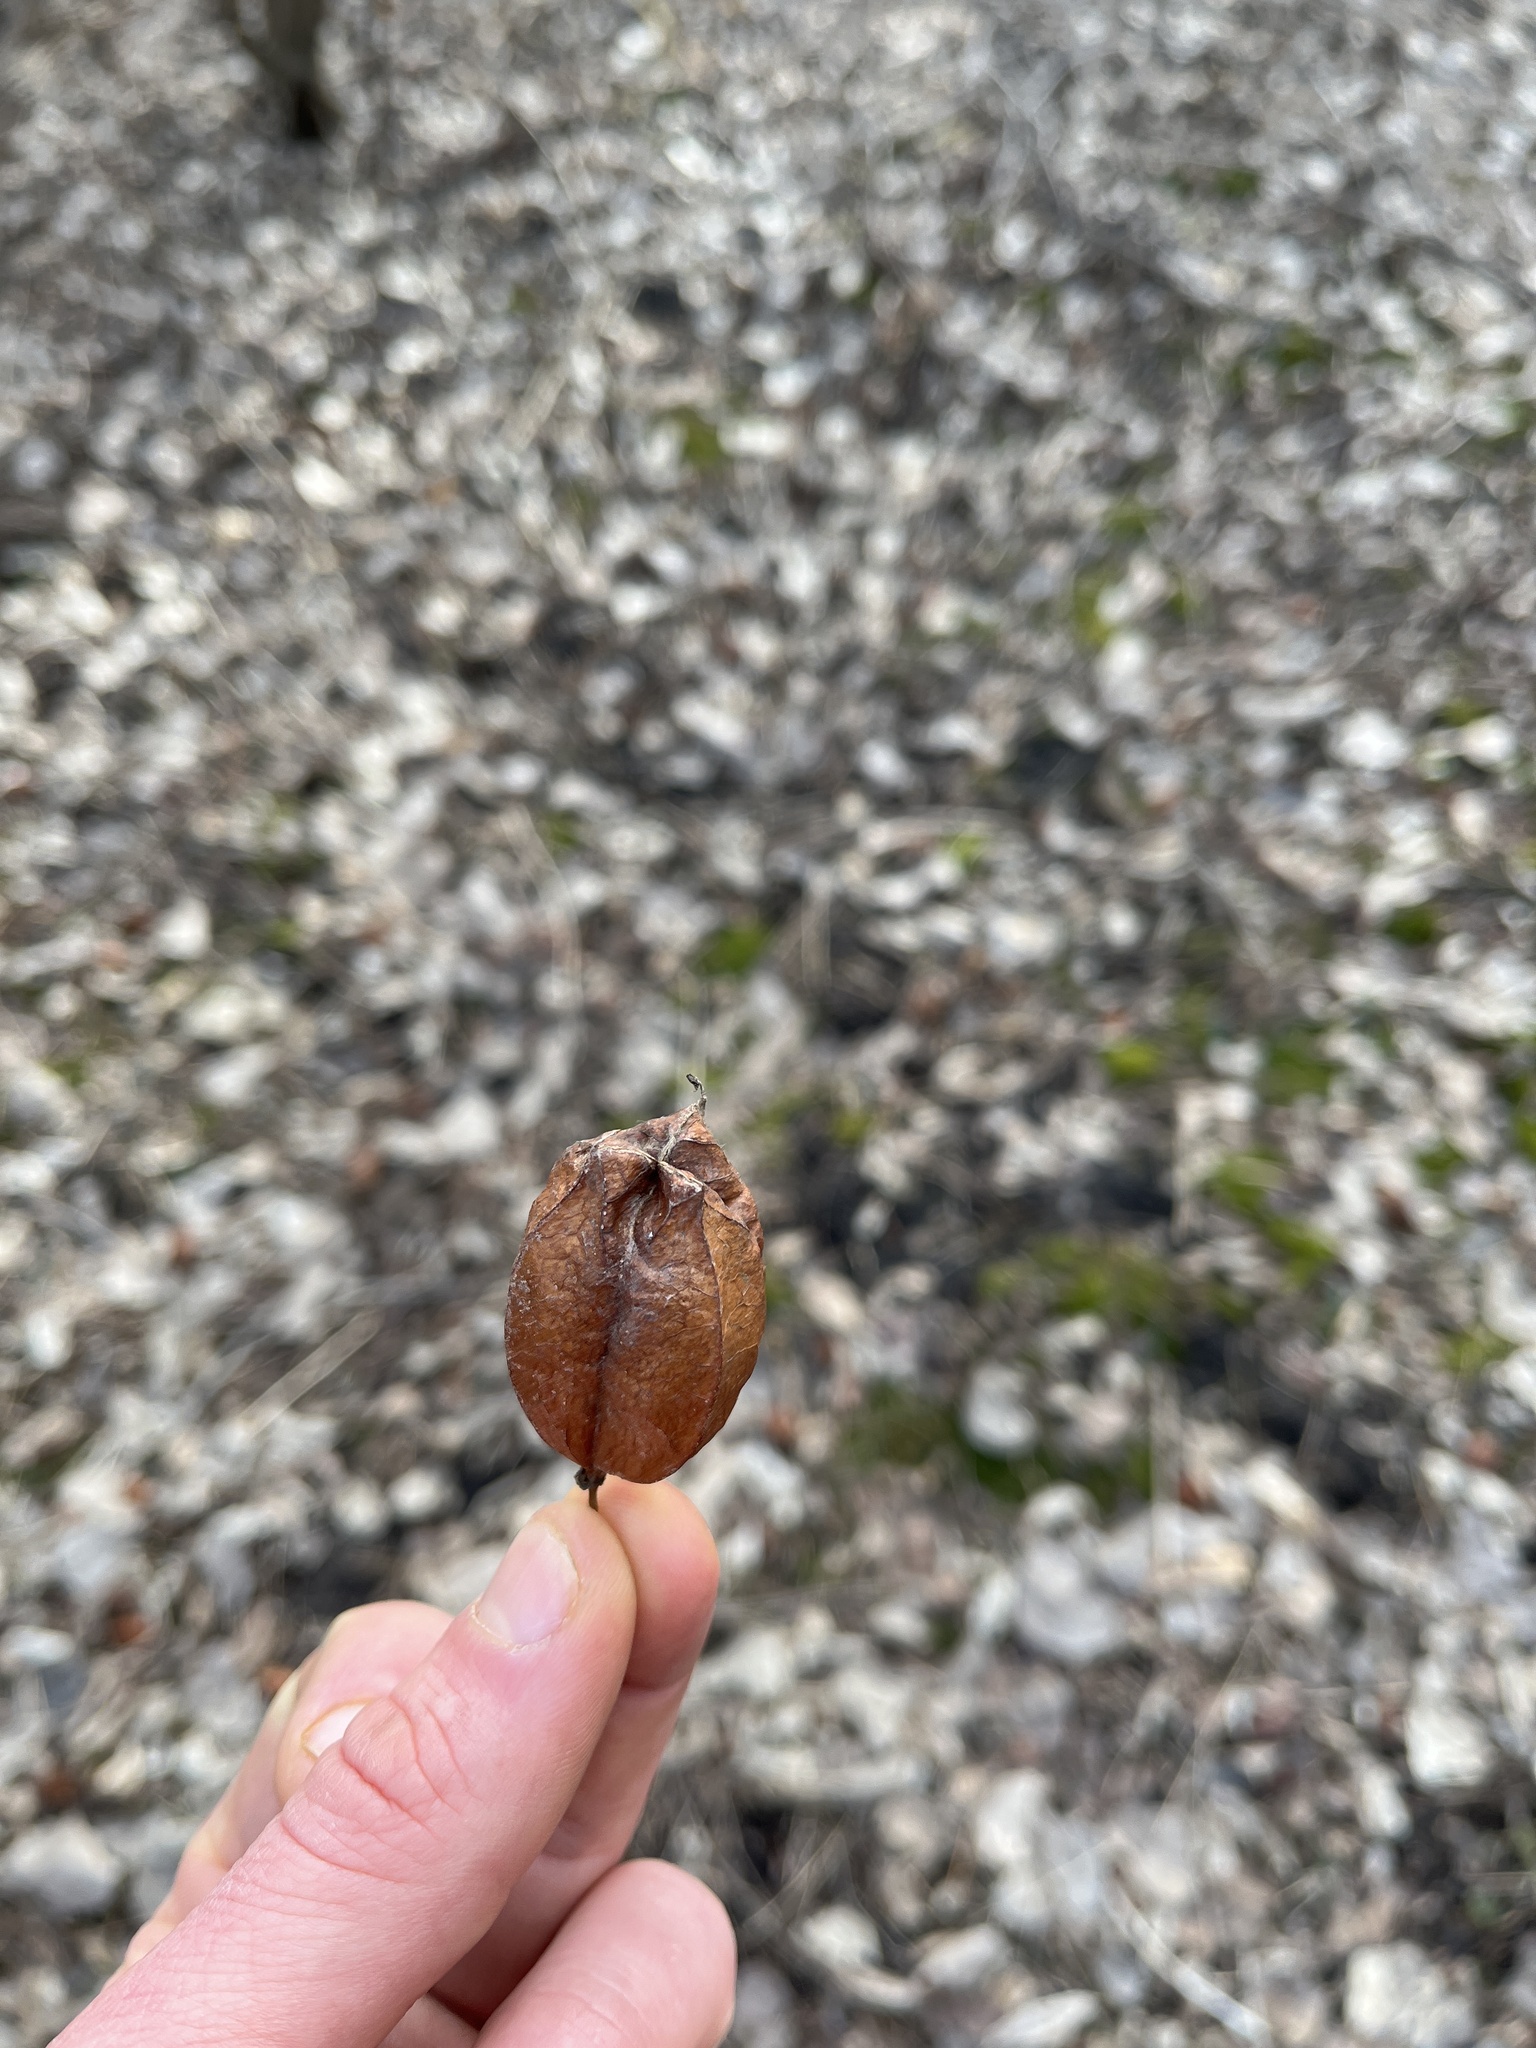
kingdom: Plantae
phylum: Tracheophyta
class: Magnoliopsida
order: Crossosomatales
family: Staphyleaceae
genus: Staphylea
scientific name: Staphylea trifolia
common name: American bladdernut
